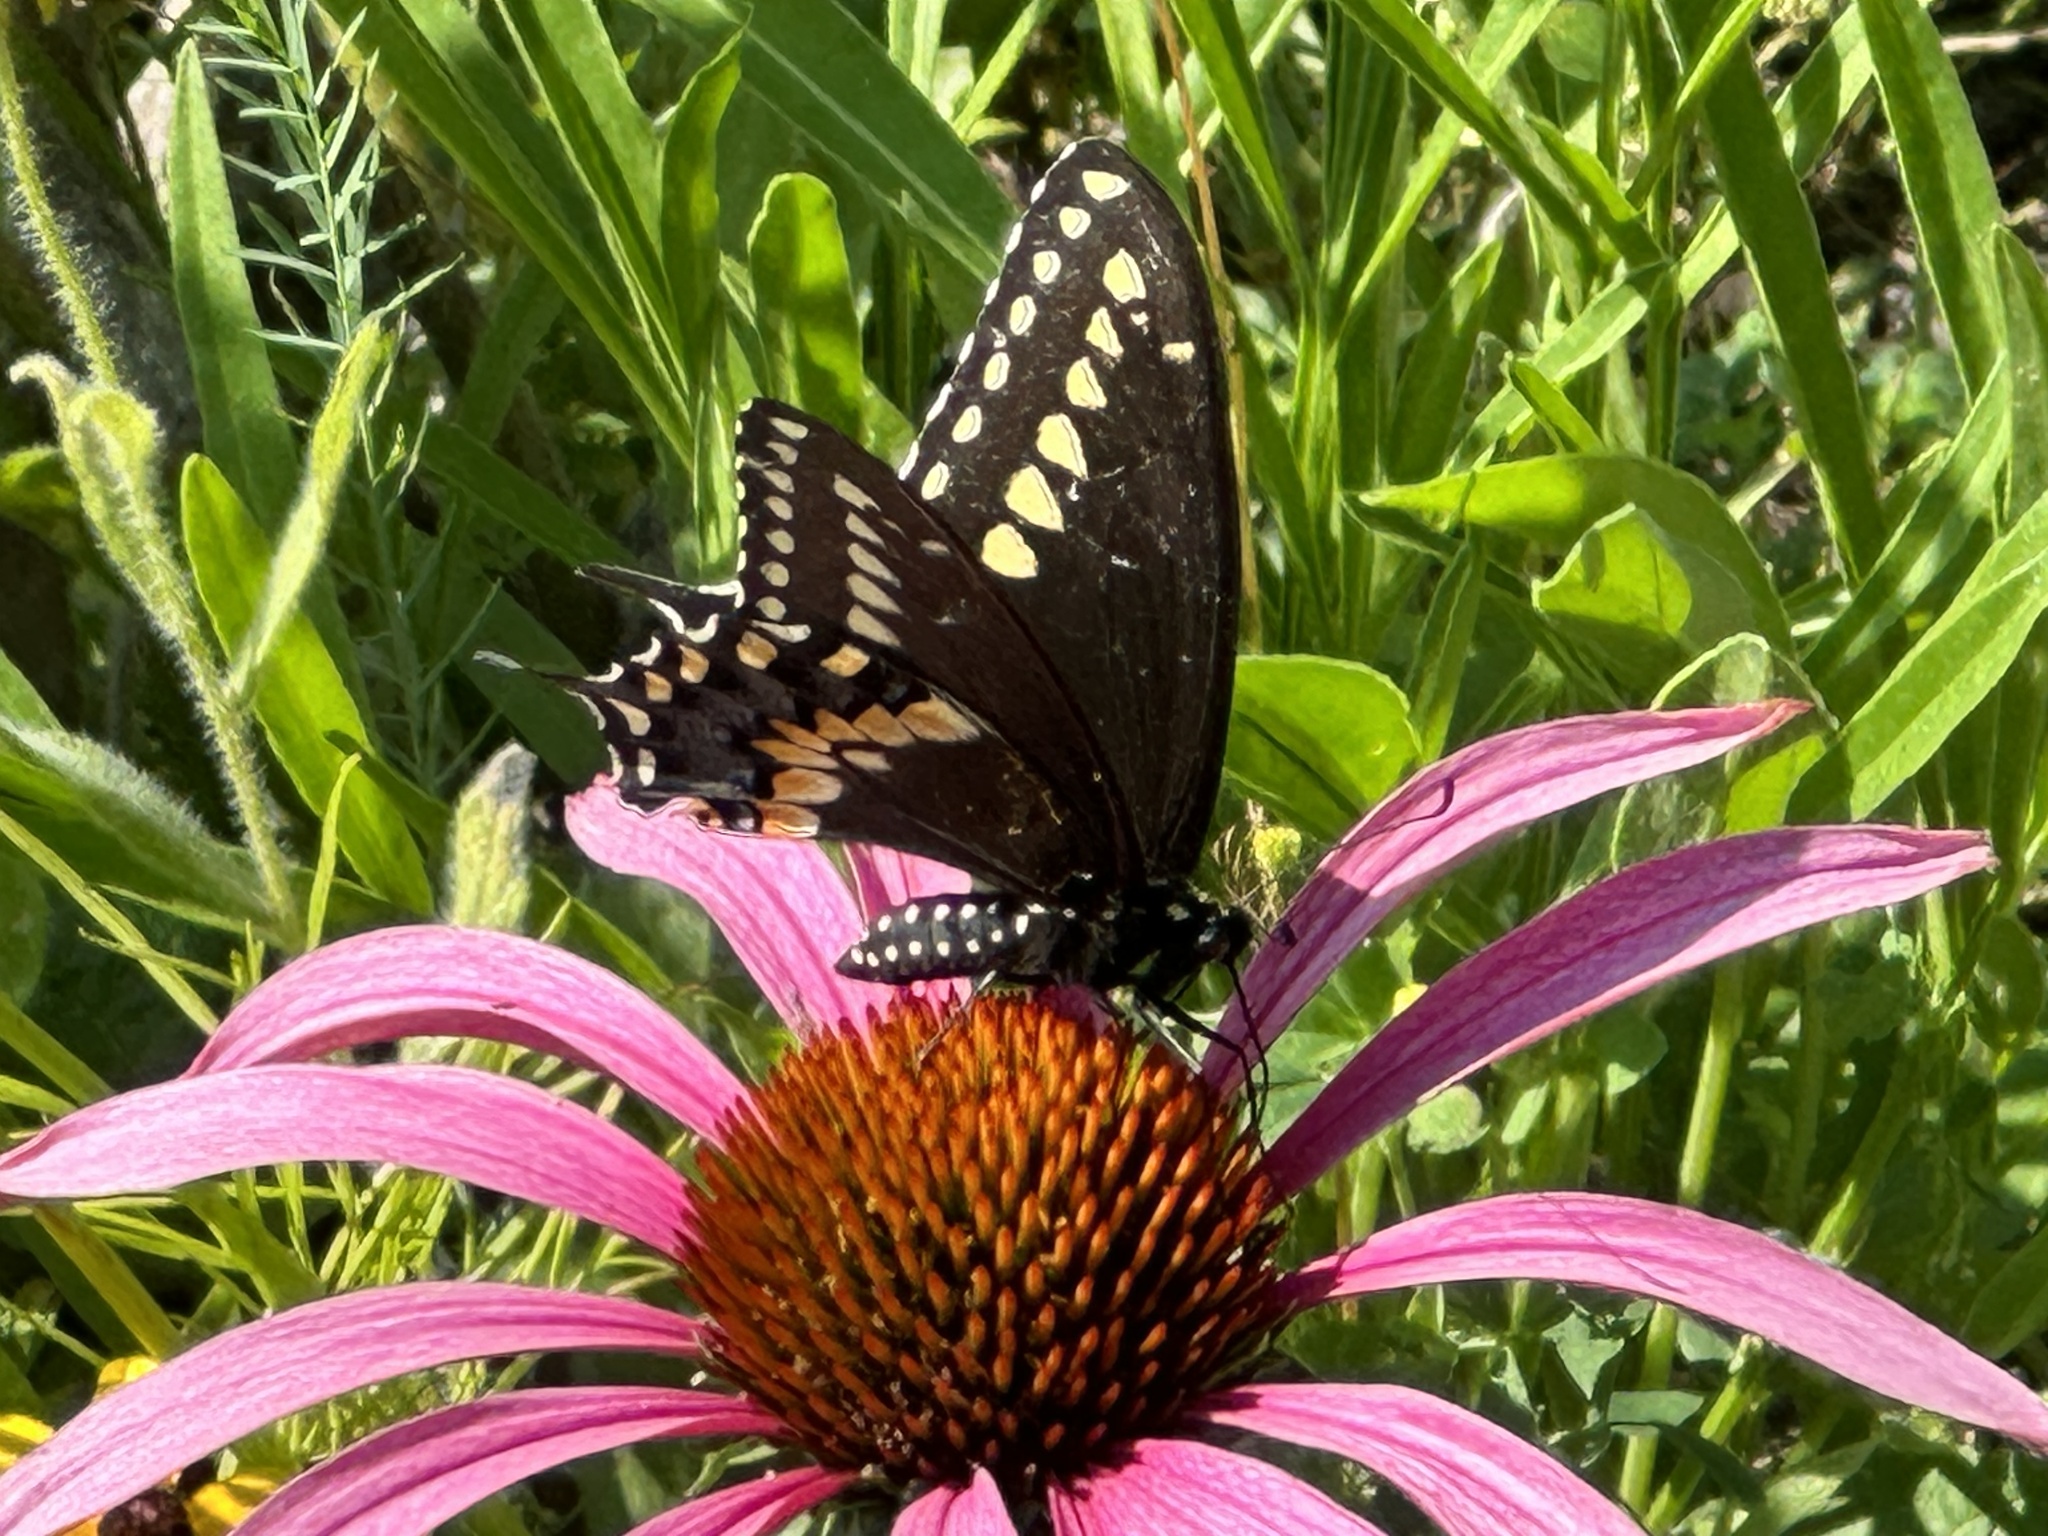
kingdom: Animalia
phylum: Arthropoda
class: Insecta
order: Lepidoptera
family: Papilionidae
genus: Papilio
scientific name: Papilio polyxenes
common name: Black swallowtail
